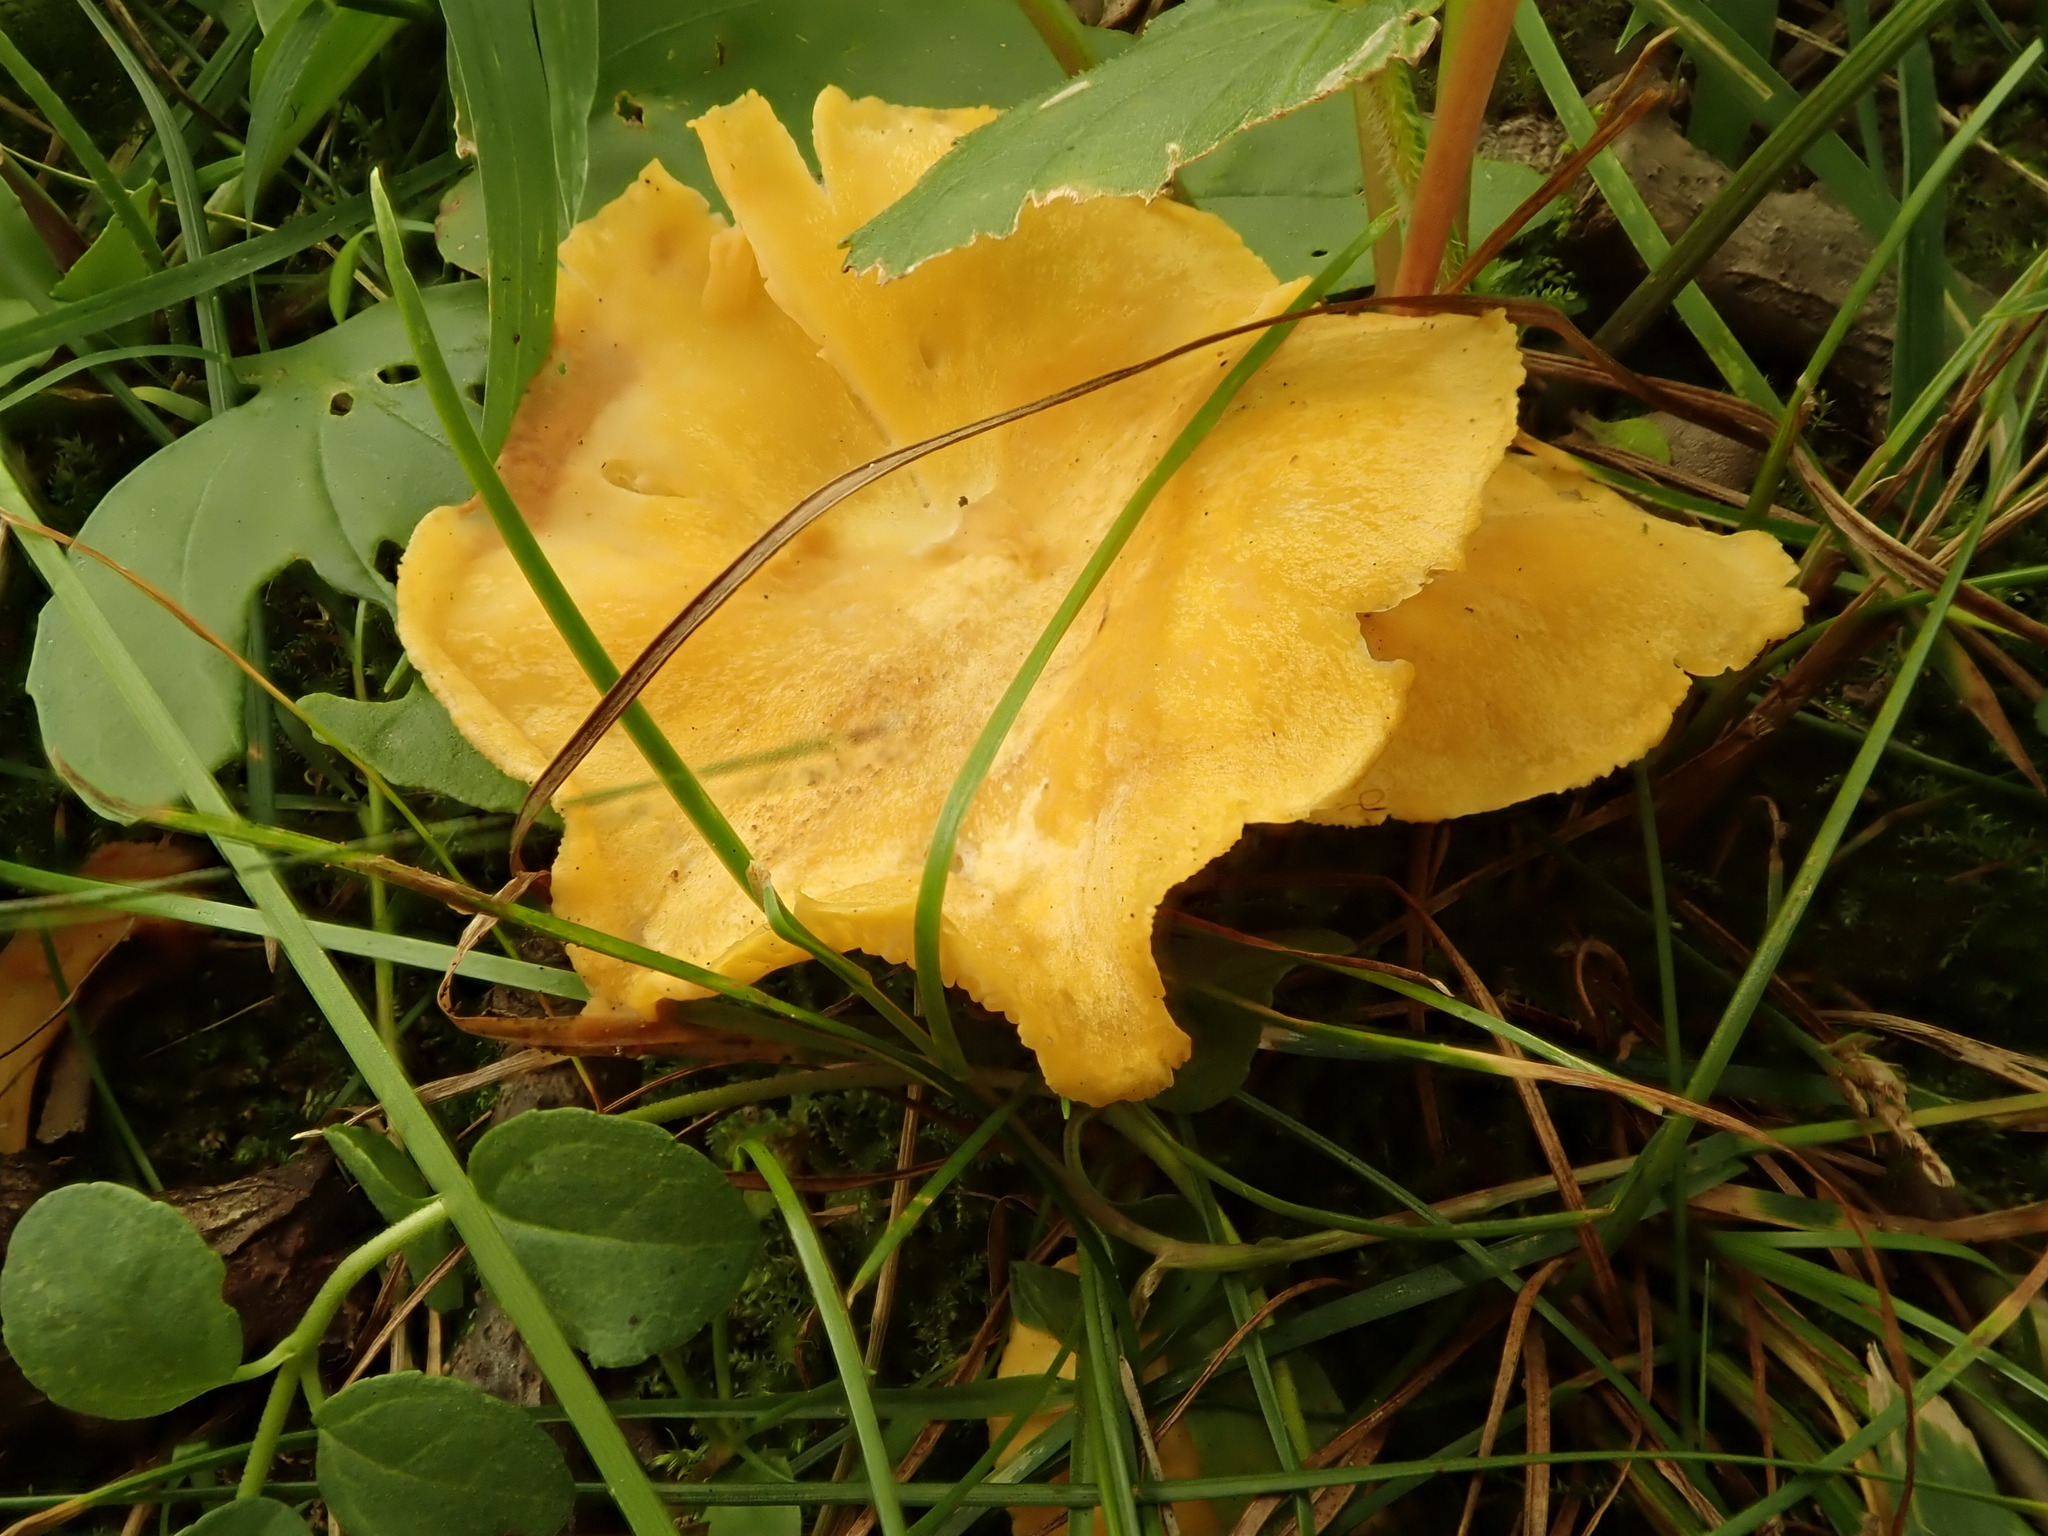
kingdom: Fungi
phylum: Basidiomycota
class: Agaricomycetes
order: Cantharellales
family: Hydnaceae
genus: Cantharellus
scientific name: Cantharellus flavolateritius
